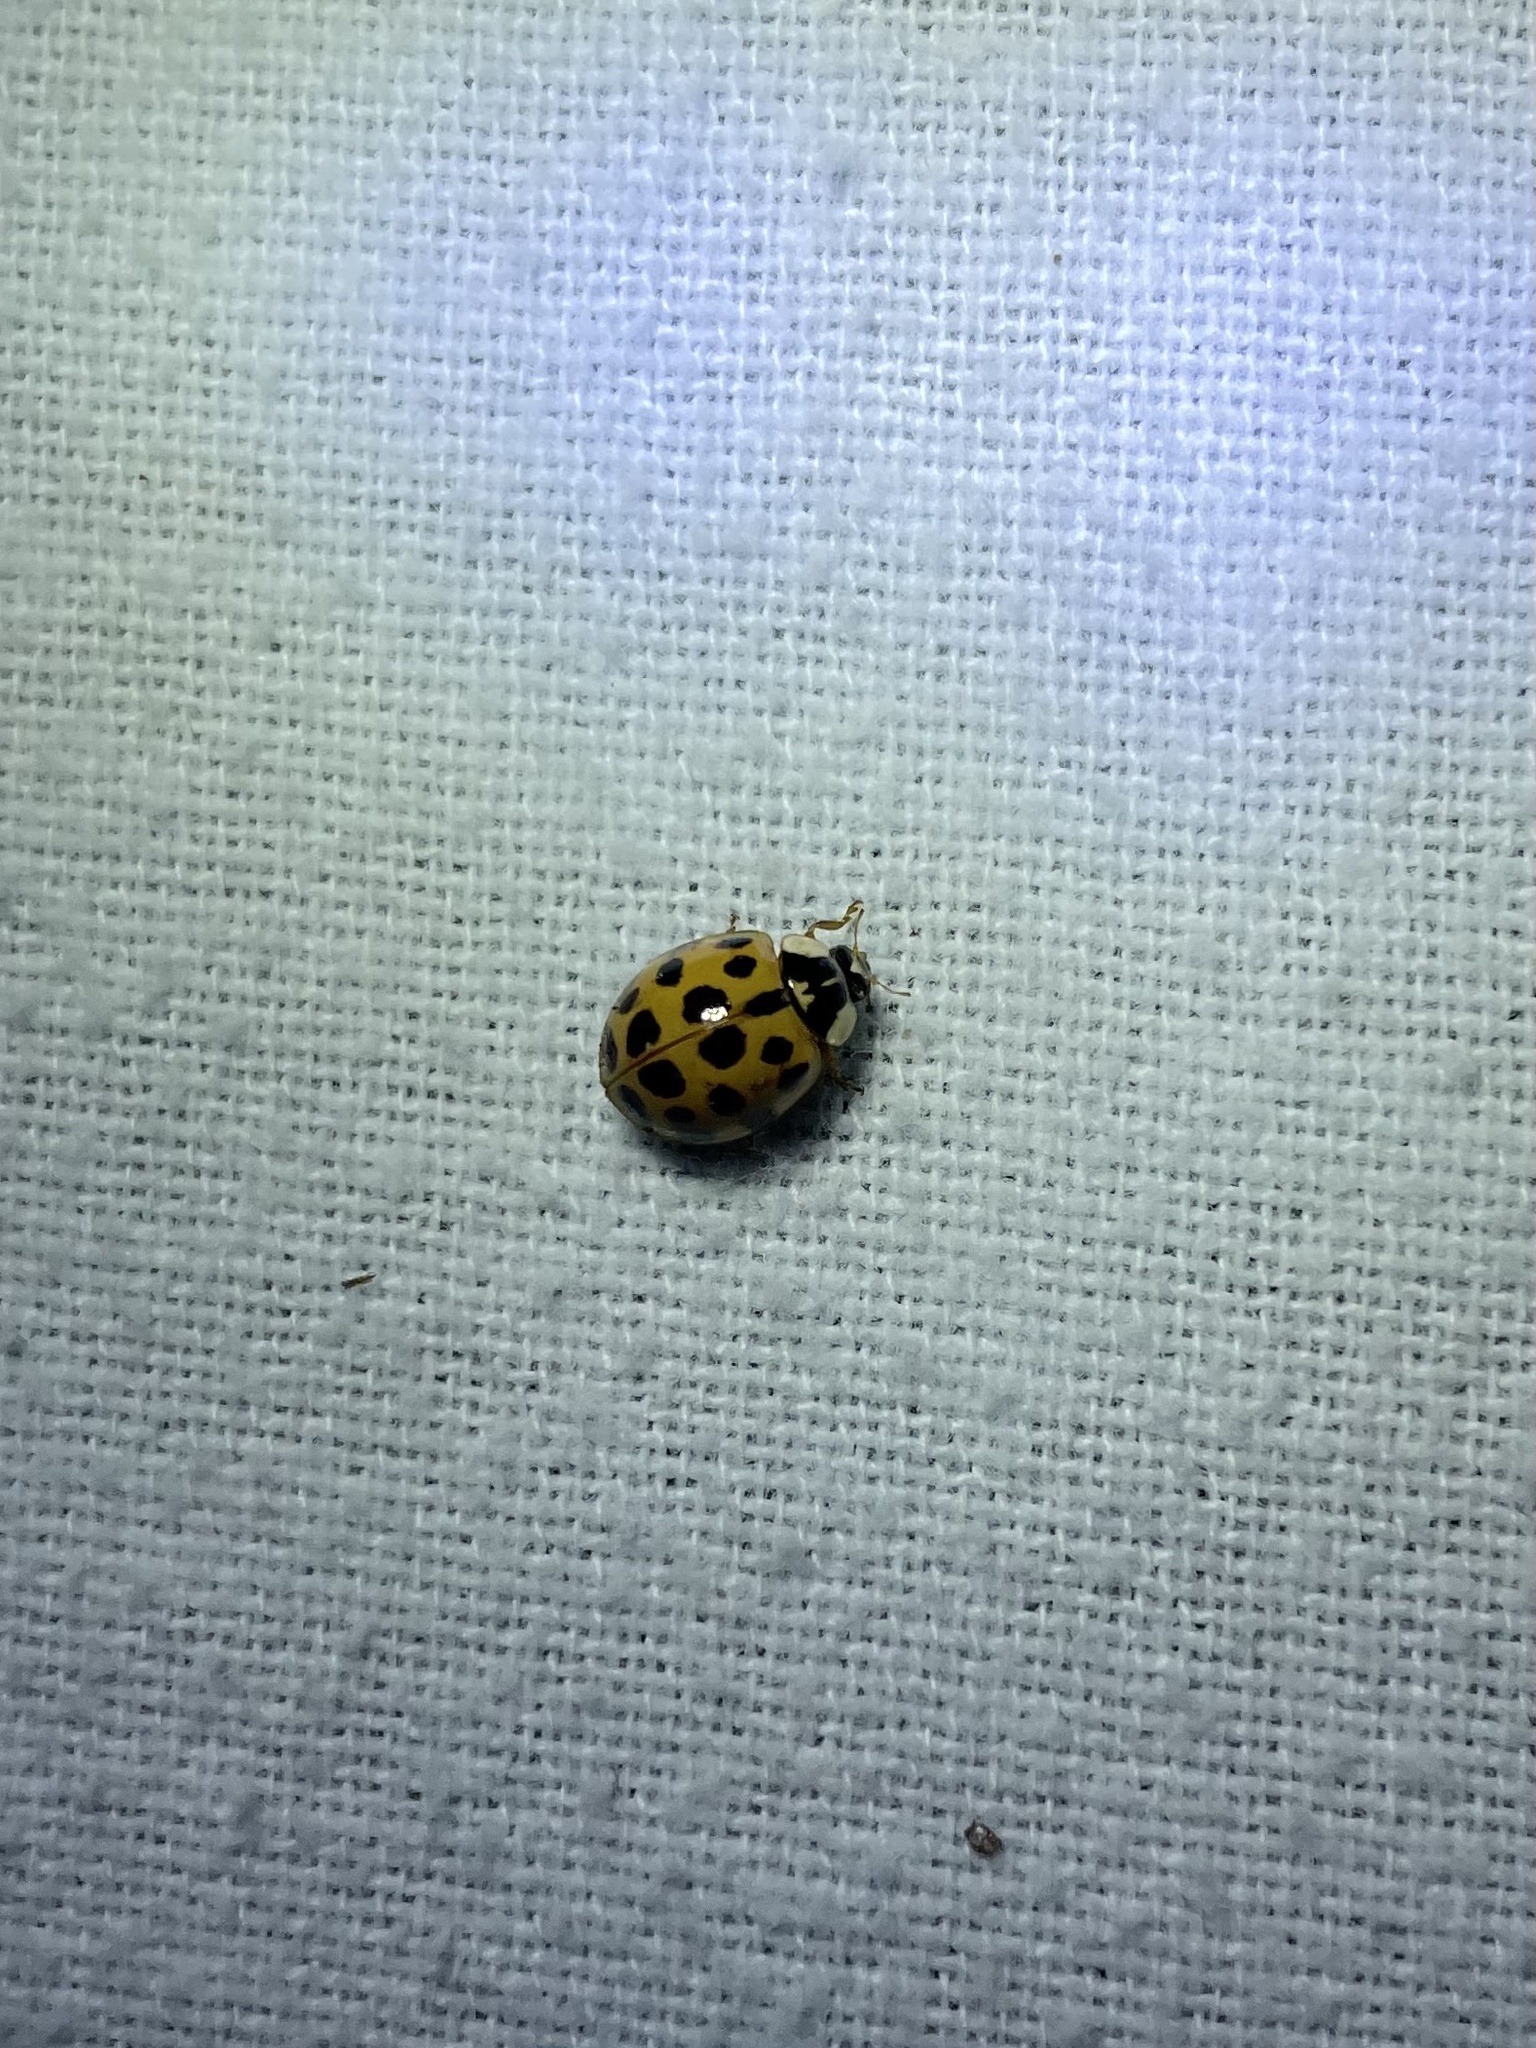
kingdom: Animalia
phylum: Arthropoda
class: Insecta
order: Coleoptera
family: Coccinellidae
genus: Harmonia
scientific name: Harmonia axyridis
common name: Harlequin ladybird
